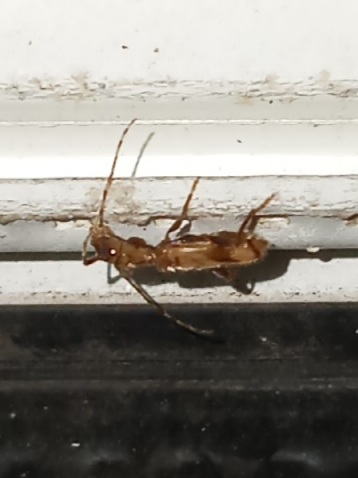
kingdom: Animalia
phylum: Arthropoda
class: Insecta
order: Coleoptera
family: Cerambycidae
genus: Obrium
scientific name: Obrium maculatum
